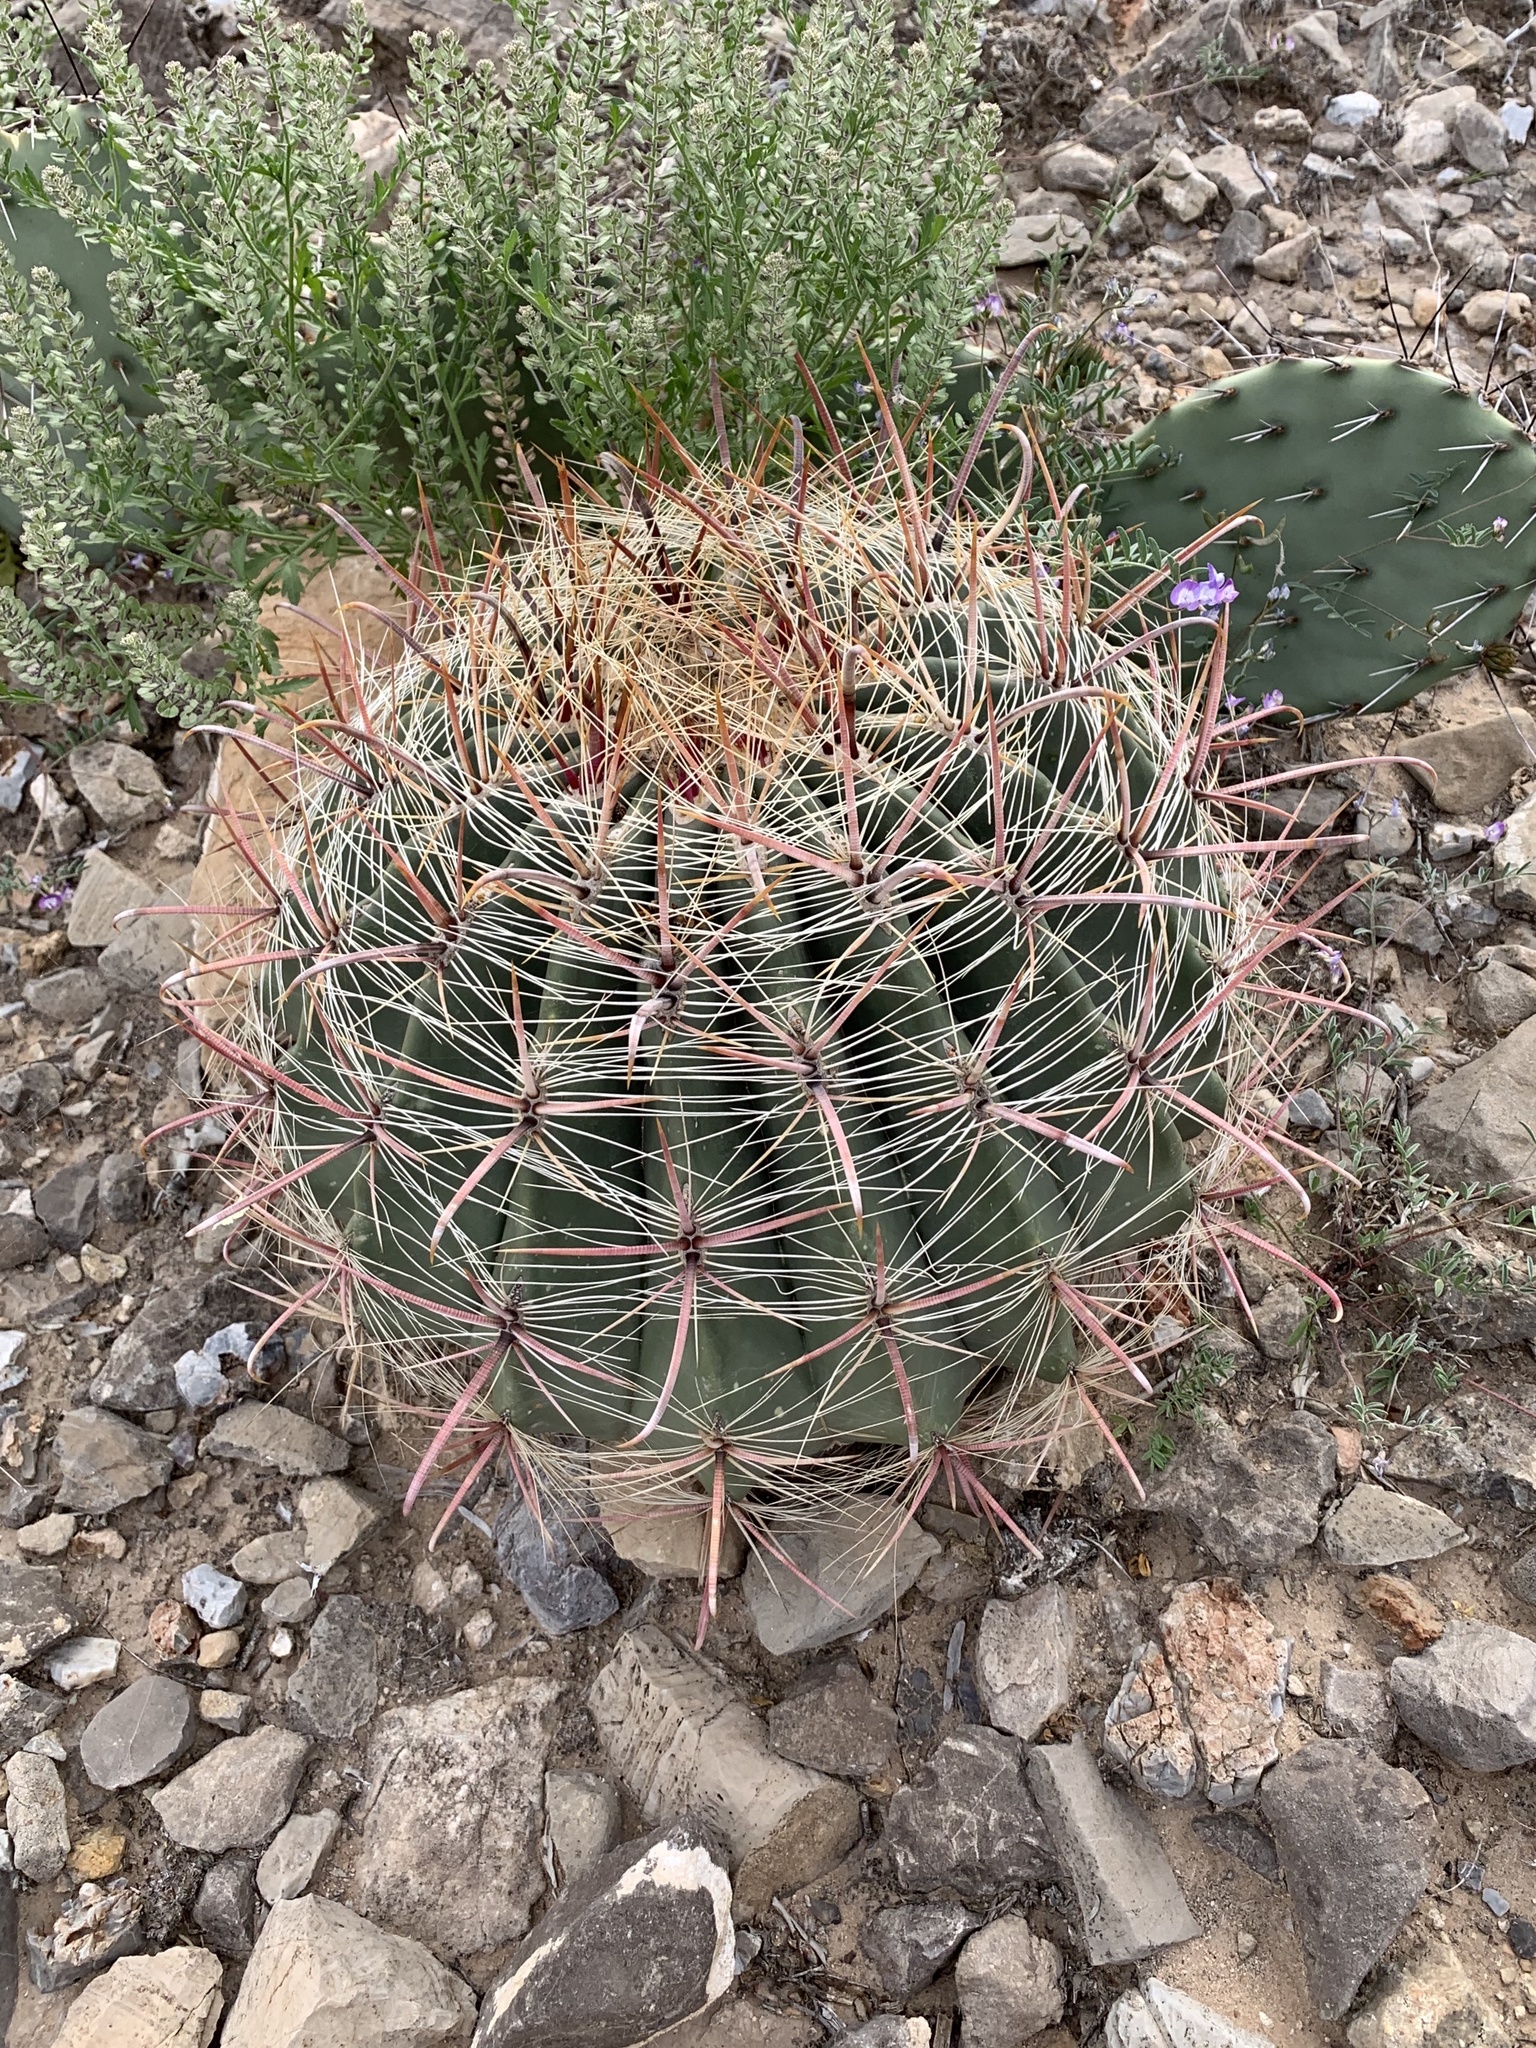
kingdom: Plantae
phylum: Tracheophyta
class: Magnoliopsida
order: Caryophyllales
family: Cactaceae
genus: Ferocactus
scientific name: Ferocactus wislizeni
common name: Candy barrel cactus
